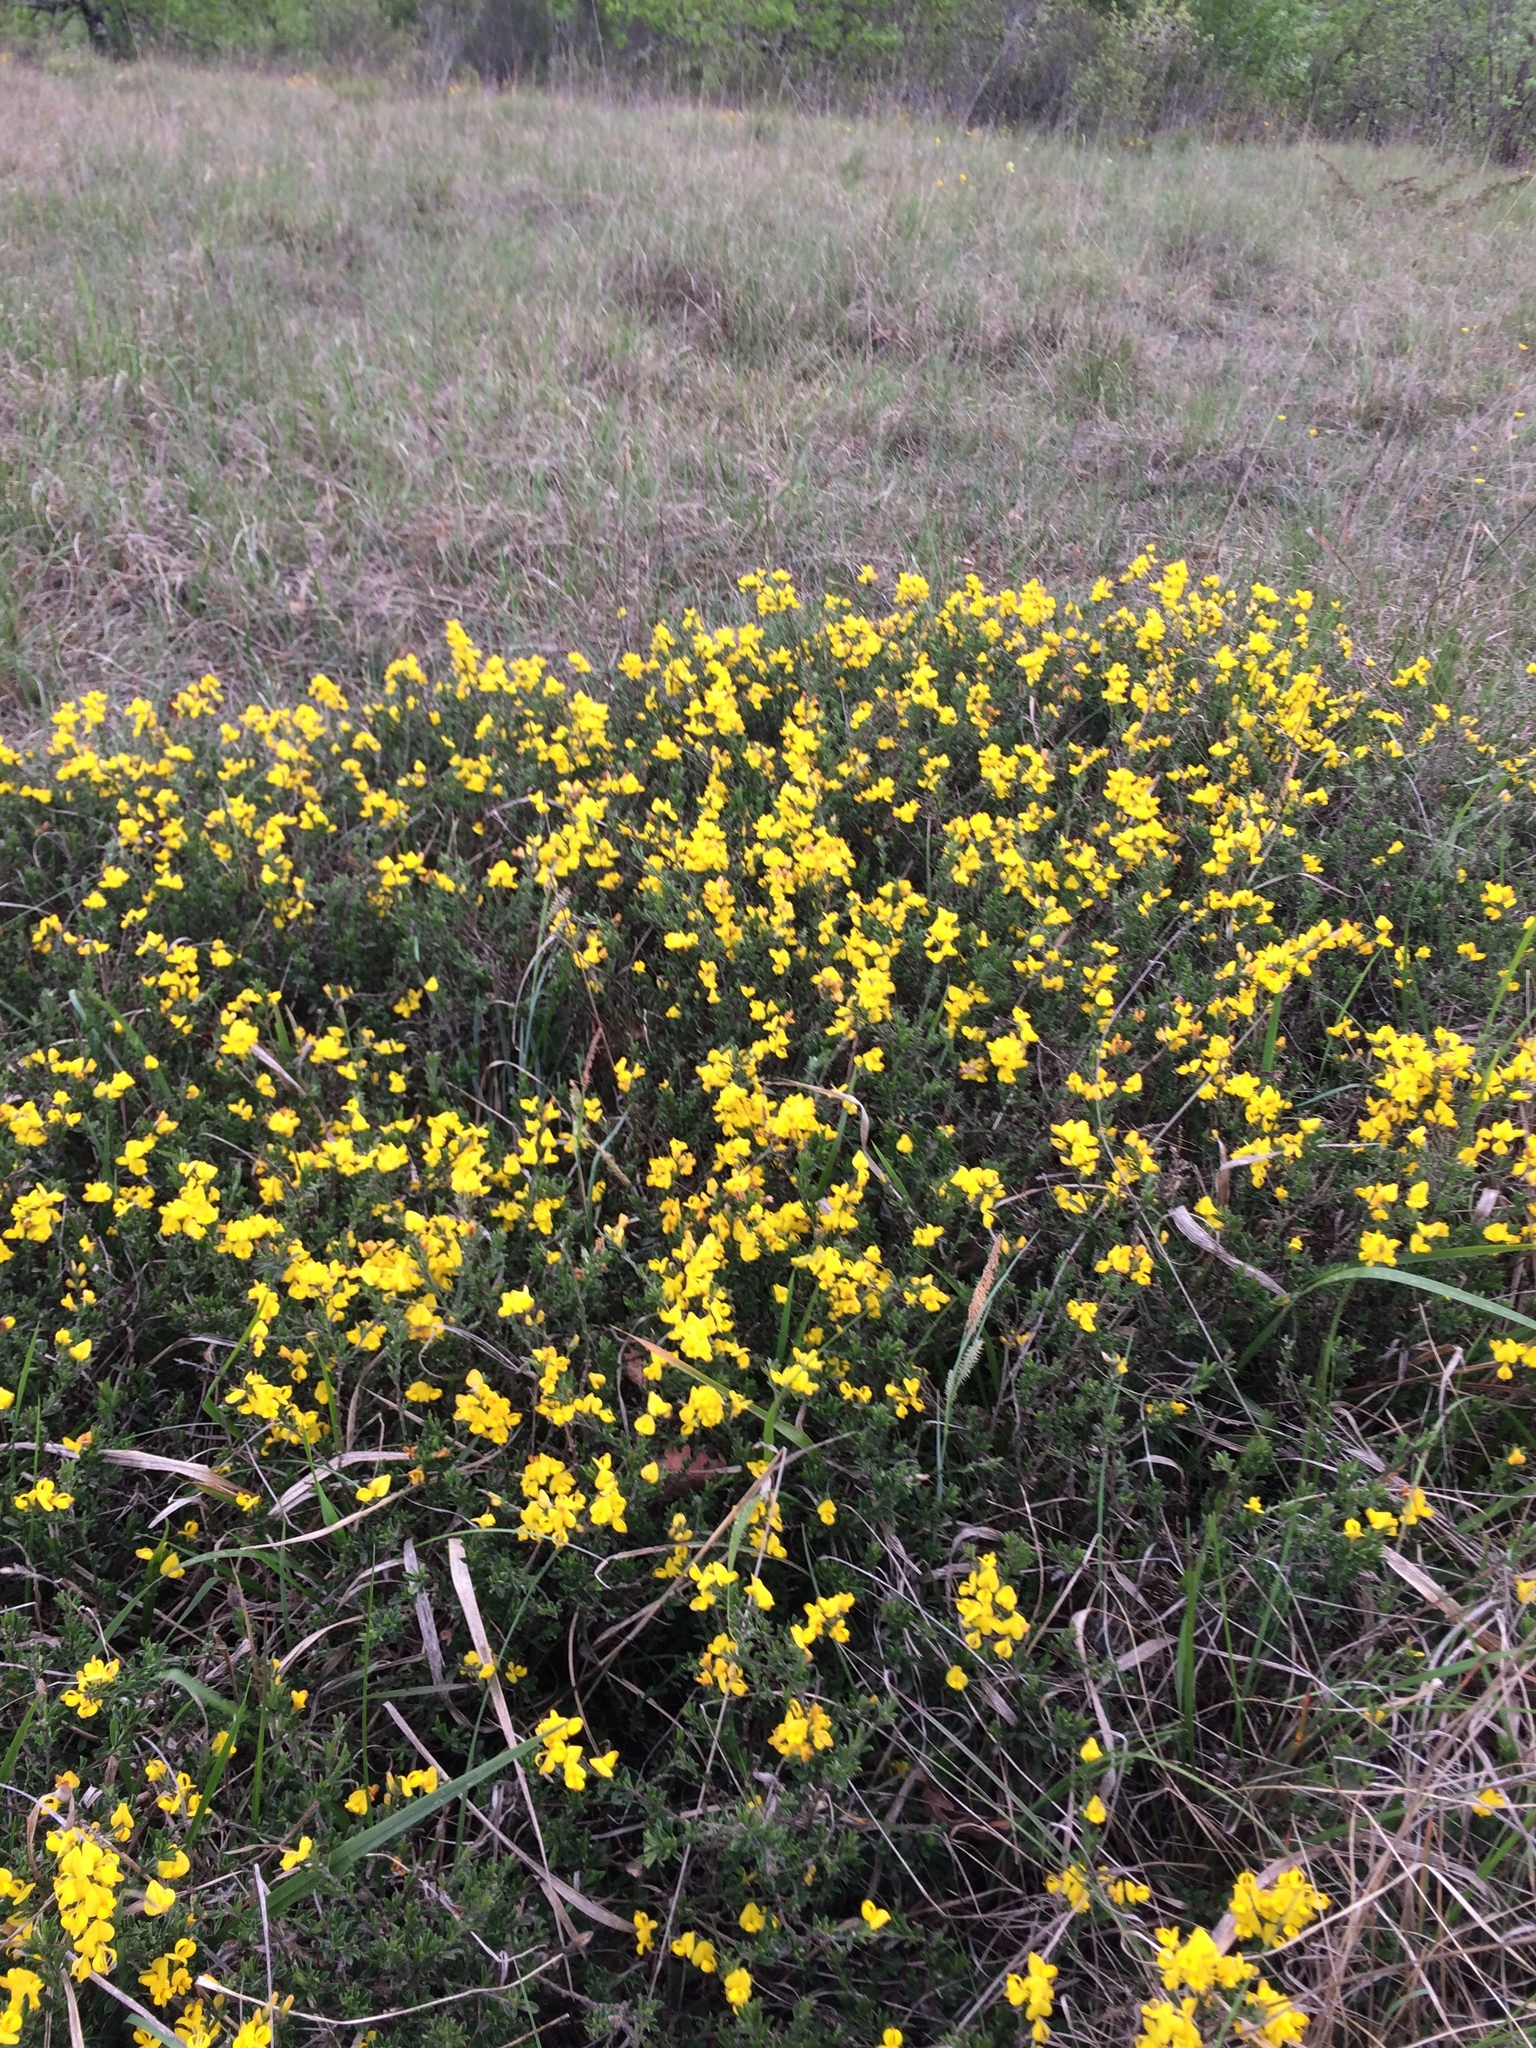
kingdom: Plantae
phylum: Tracheophyta
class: Magnoliopsida
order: Fabales
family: Fabaceae
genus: Cytisus
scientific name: Cytisus scoparius
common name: Scotch broom
